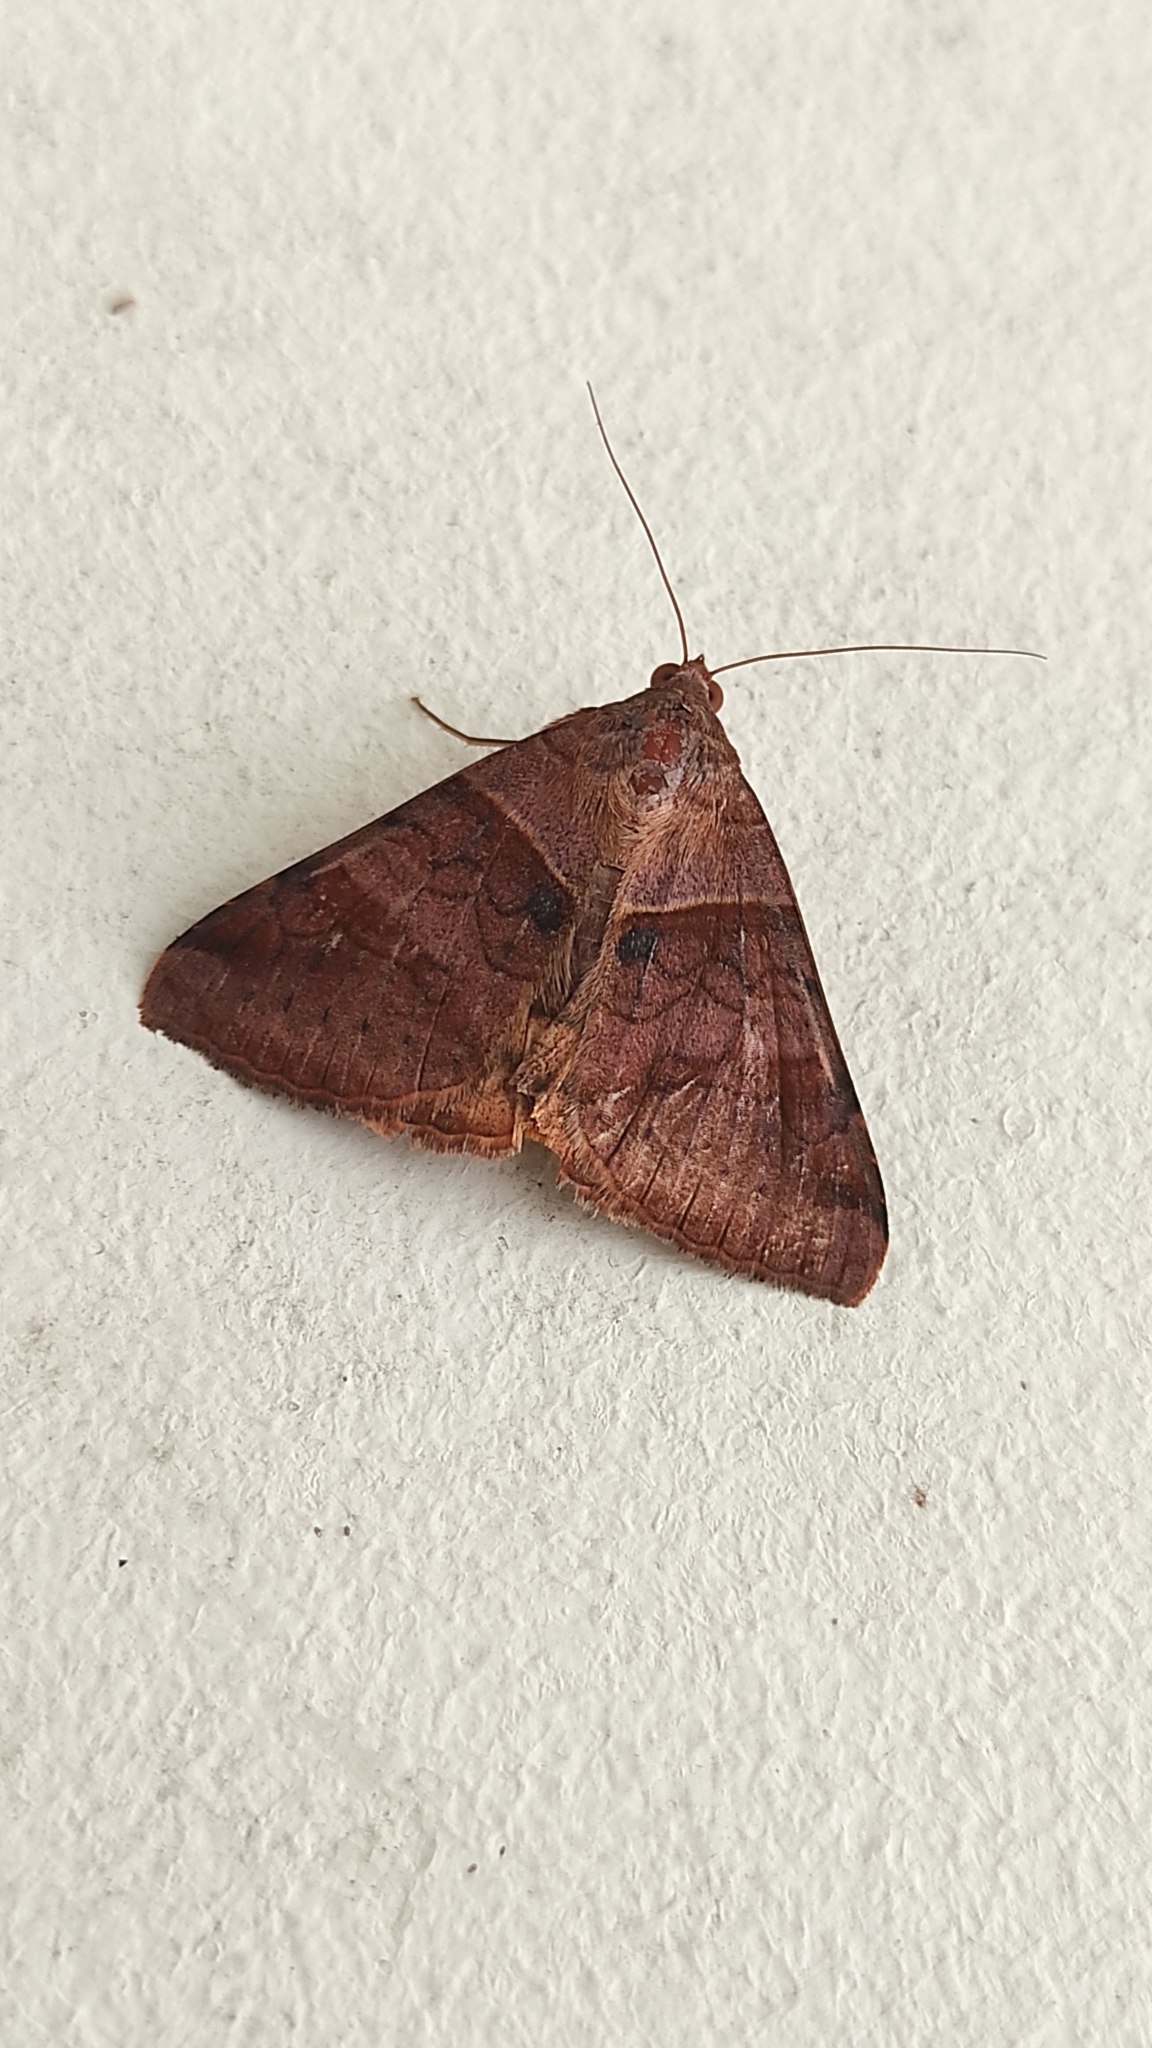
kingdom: Animalia
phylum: Arthropoda
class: Insecta
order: Lepidoptera
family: Erebidae
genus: Mocis
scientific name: Mocis undata
